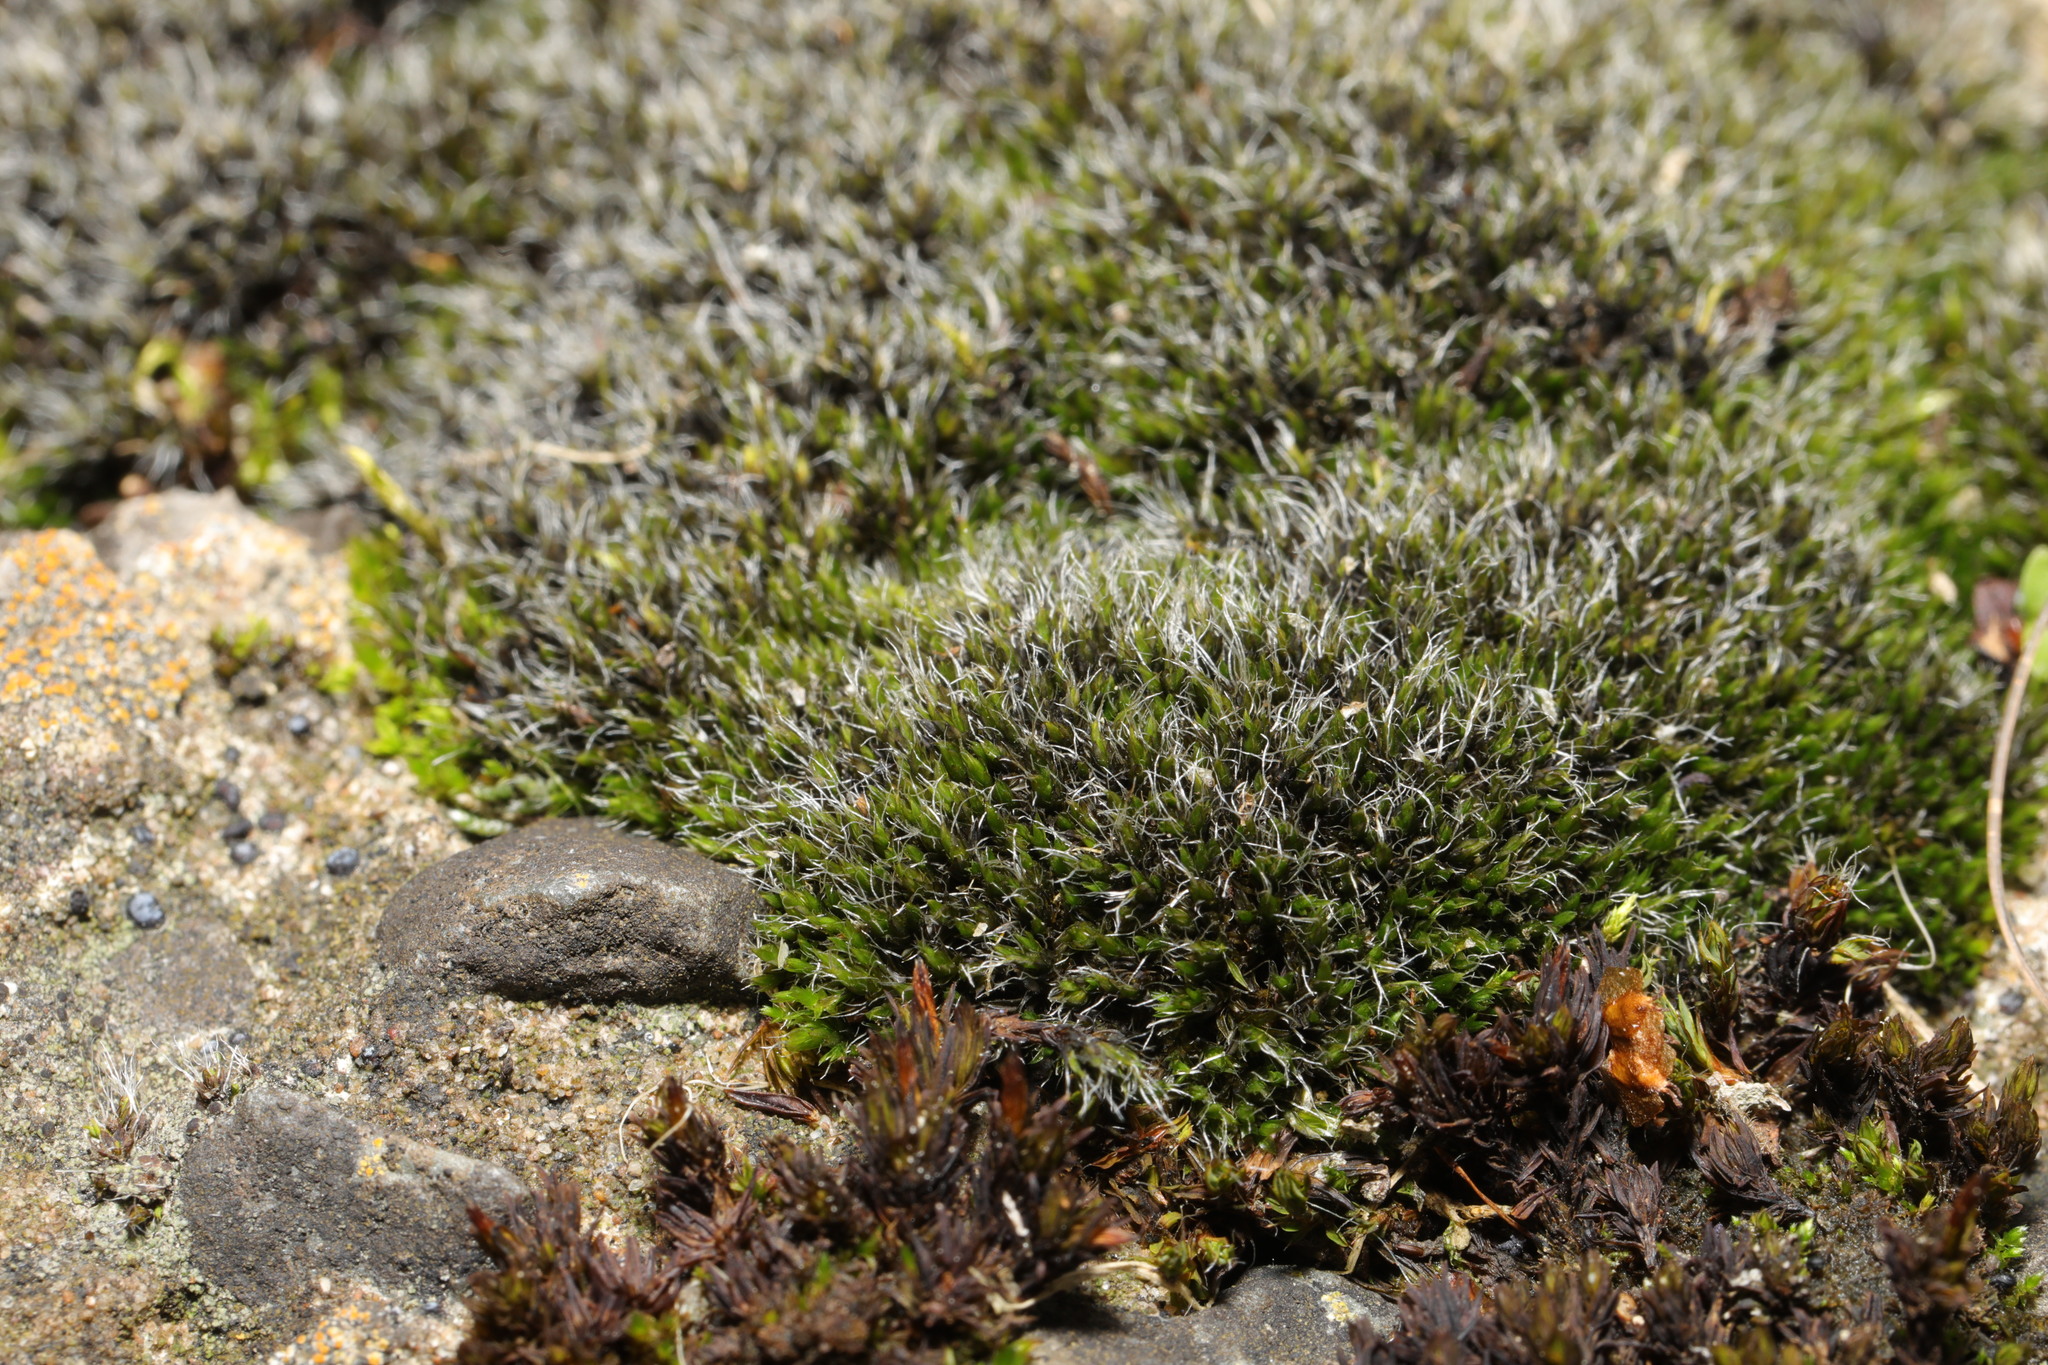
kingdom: Plantae
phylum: Bryophyta
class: Bryopsida
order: Grimmiales
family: Grimmiaceae
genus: Grimmia
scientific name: Grimmia pulvinata
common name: Grey-cushioned grimmia
